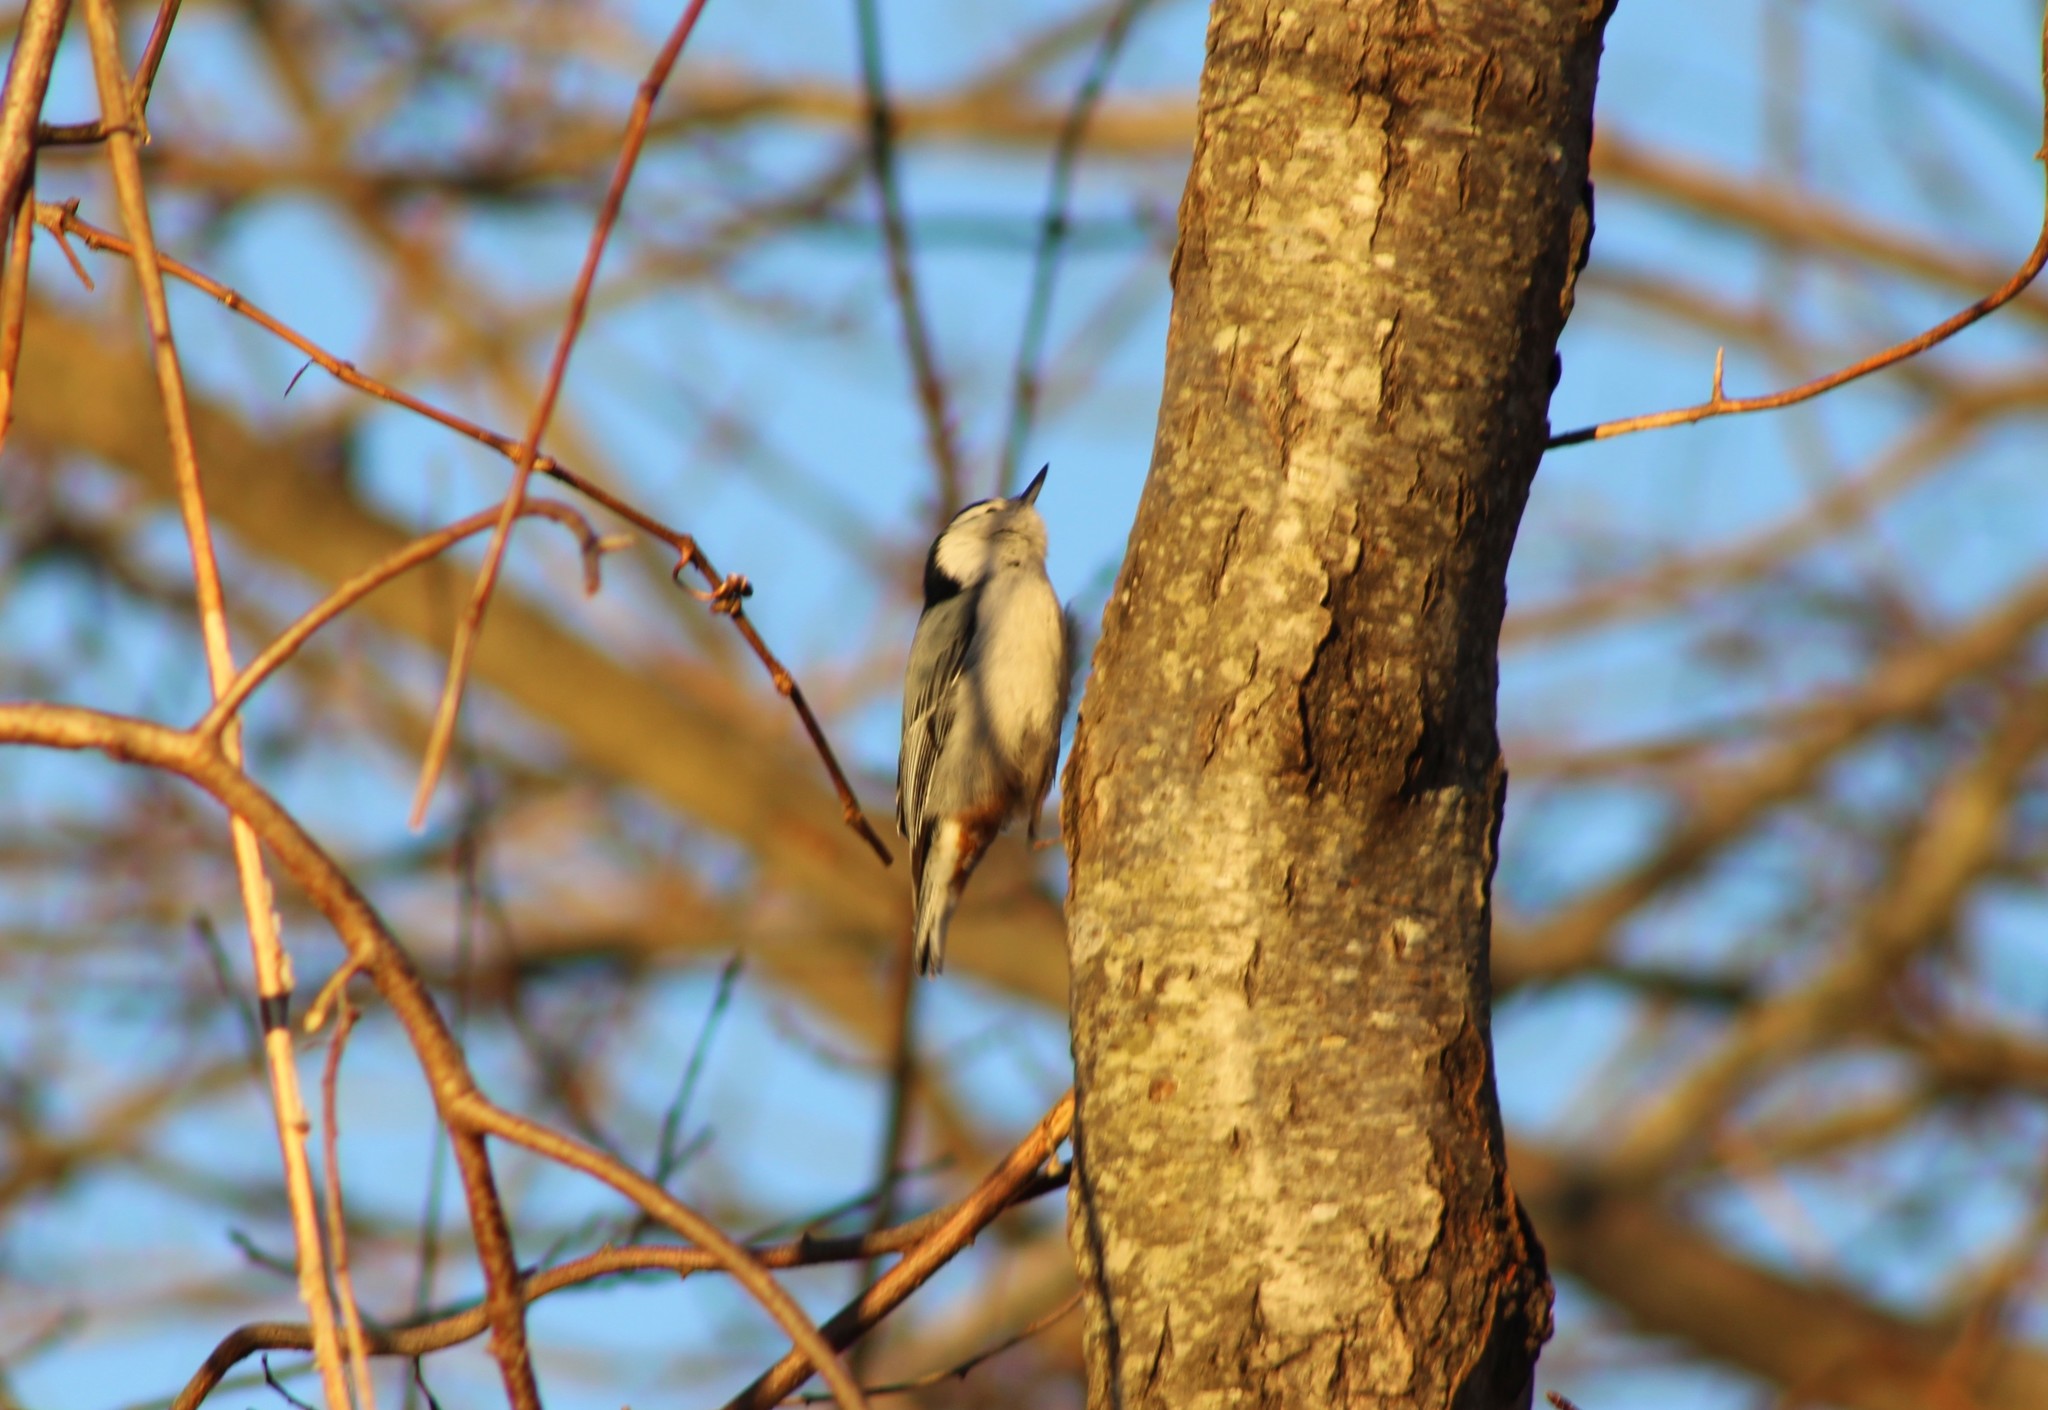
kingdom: Animalia
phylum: Chordata
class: Aves
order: Passeriformes
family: Sittidae
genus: Sitta
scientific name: Sitta carolinensis
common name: White-breasted nuthatch
